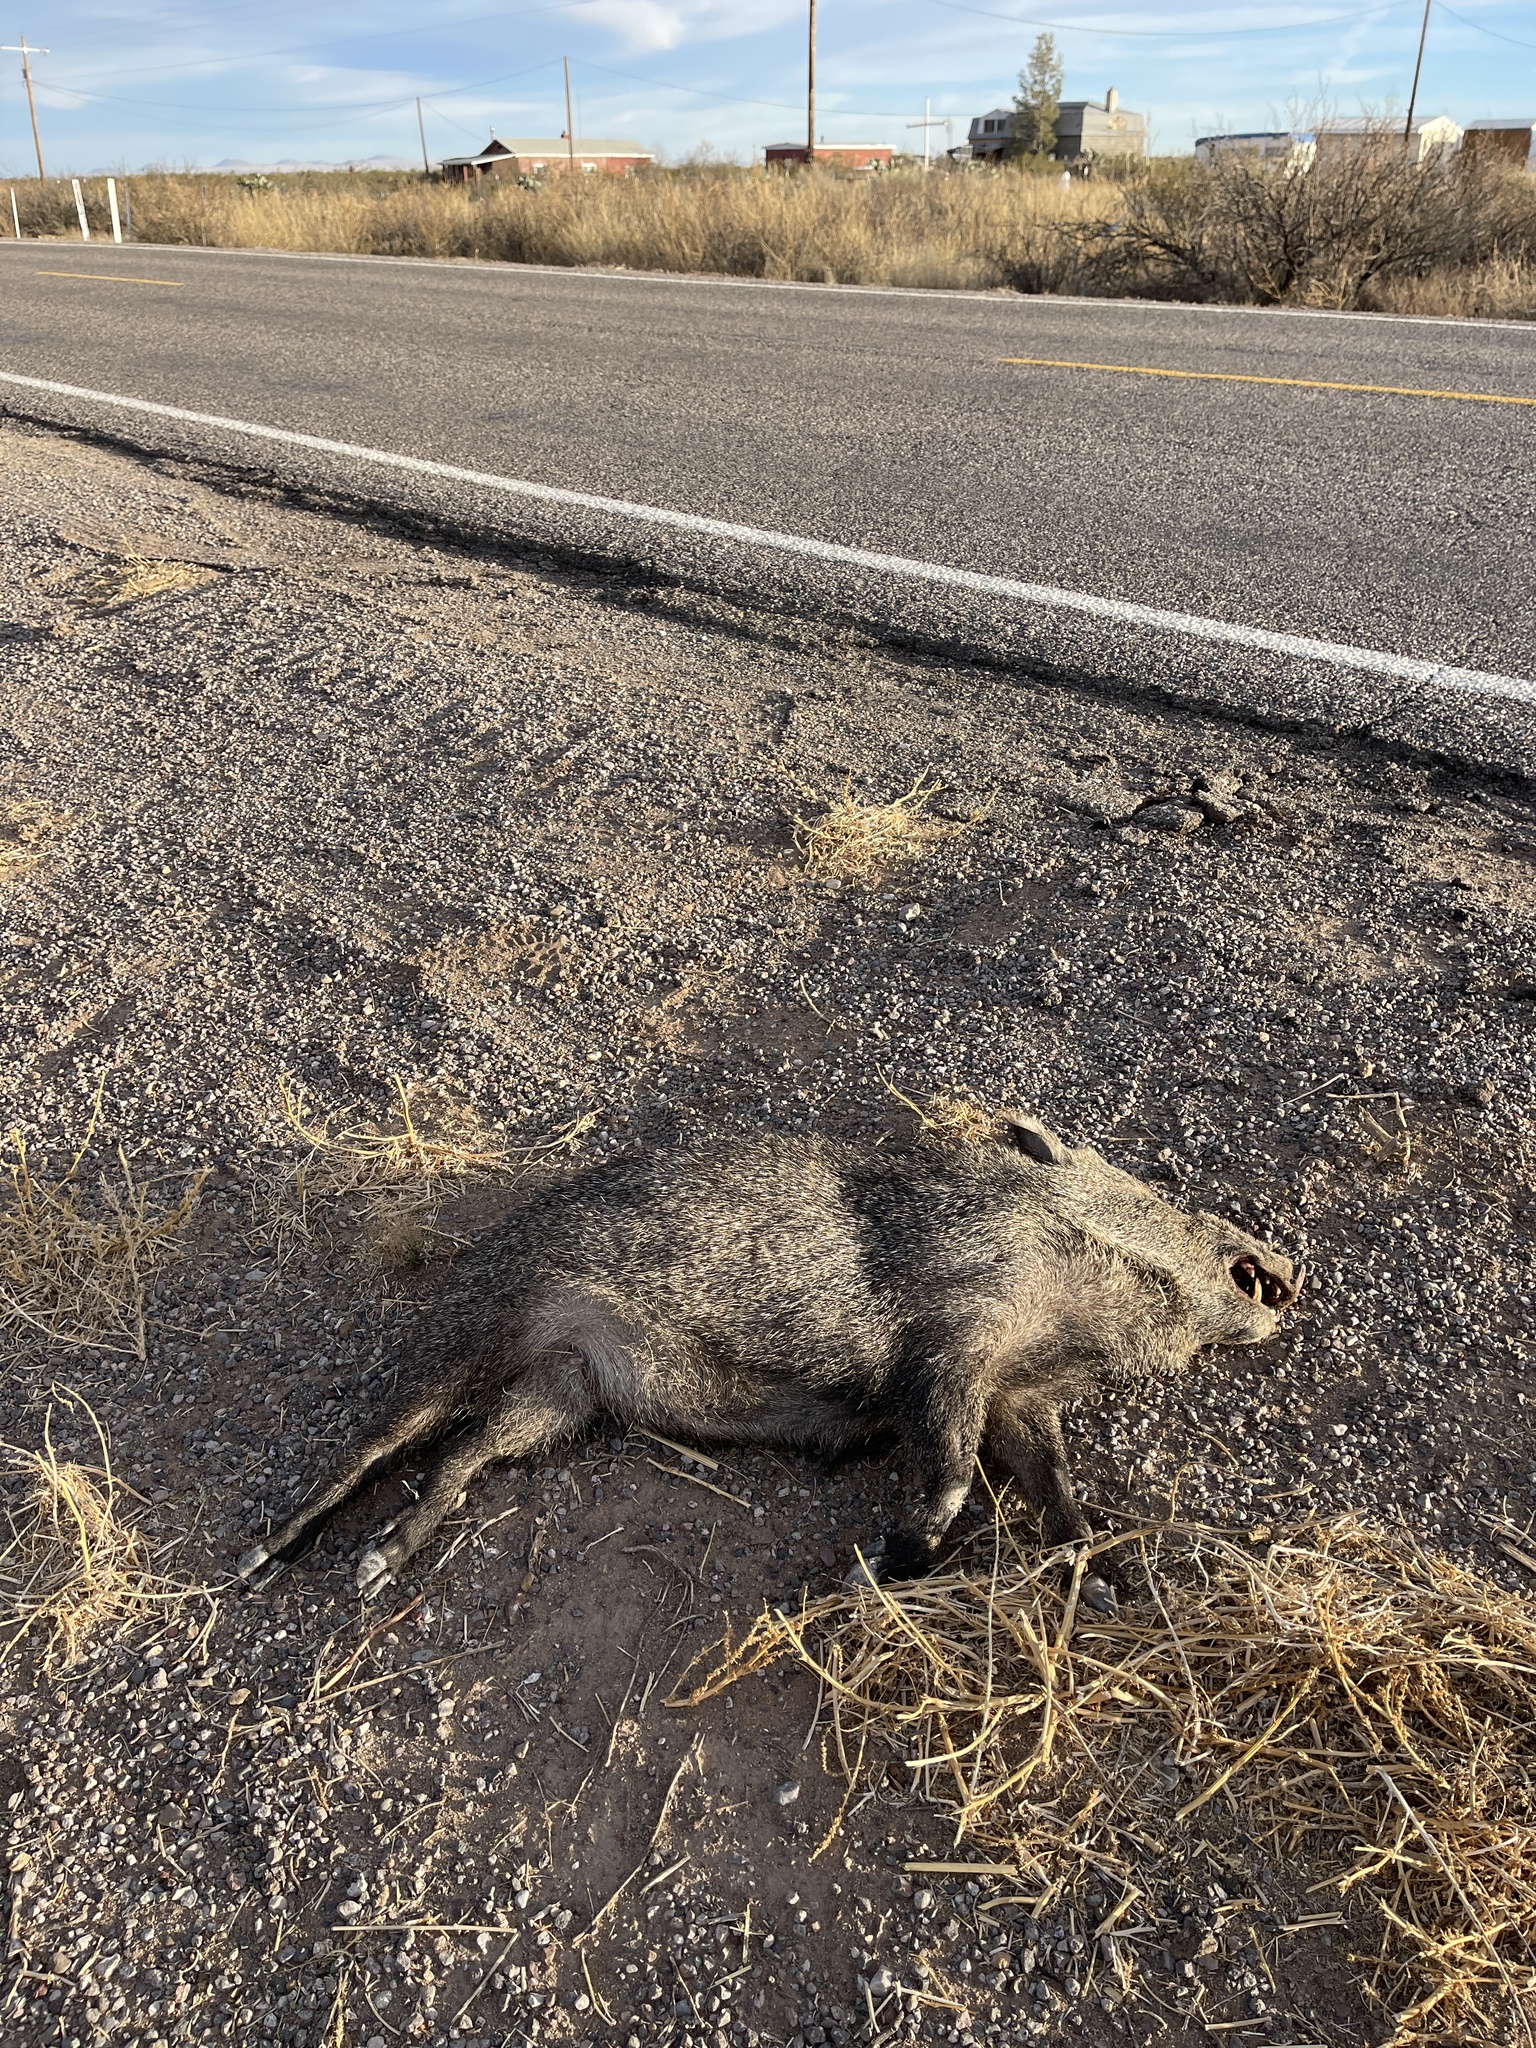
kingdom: Animalia
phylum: Chordata
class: Mammalia
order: Artiodactyla
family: Tayassuidae
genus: Pecari
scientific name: Pecari tajacu
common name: Collared peccary
